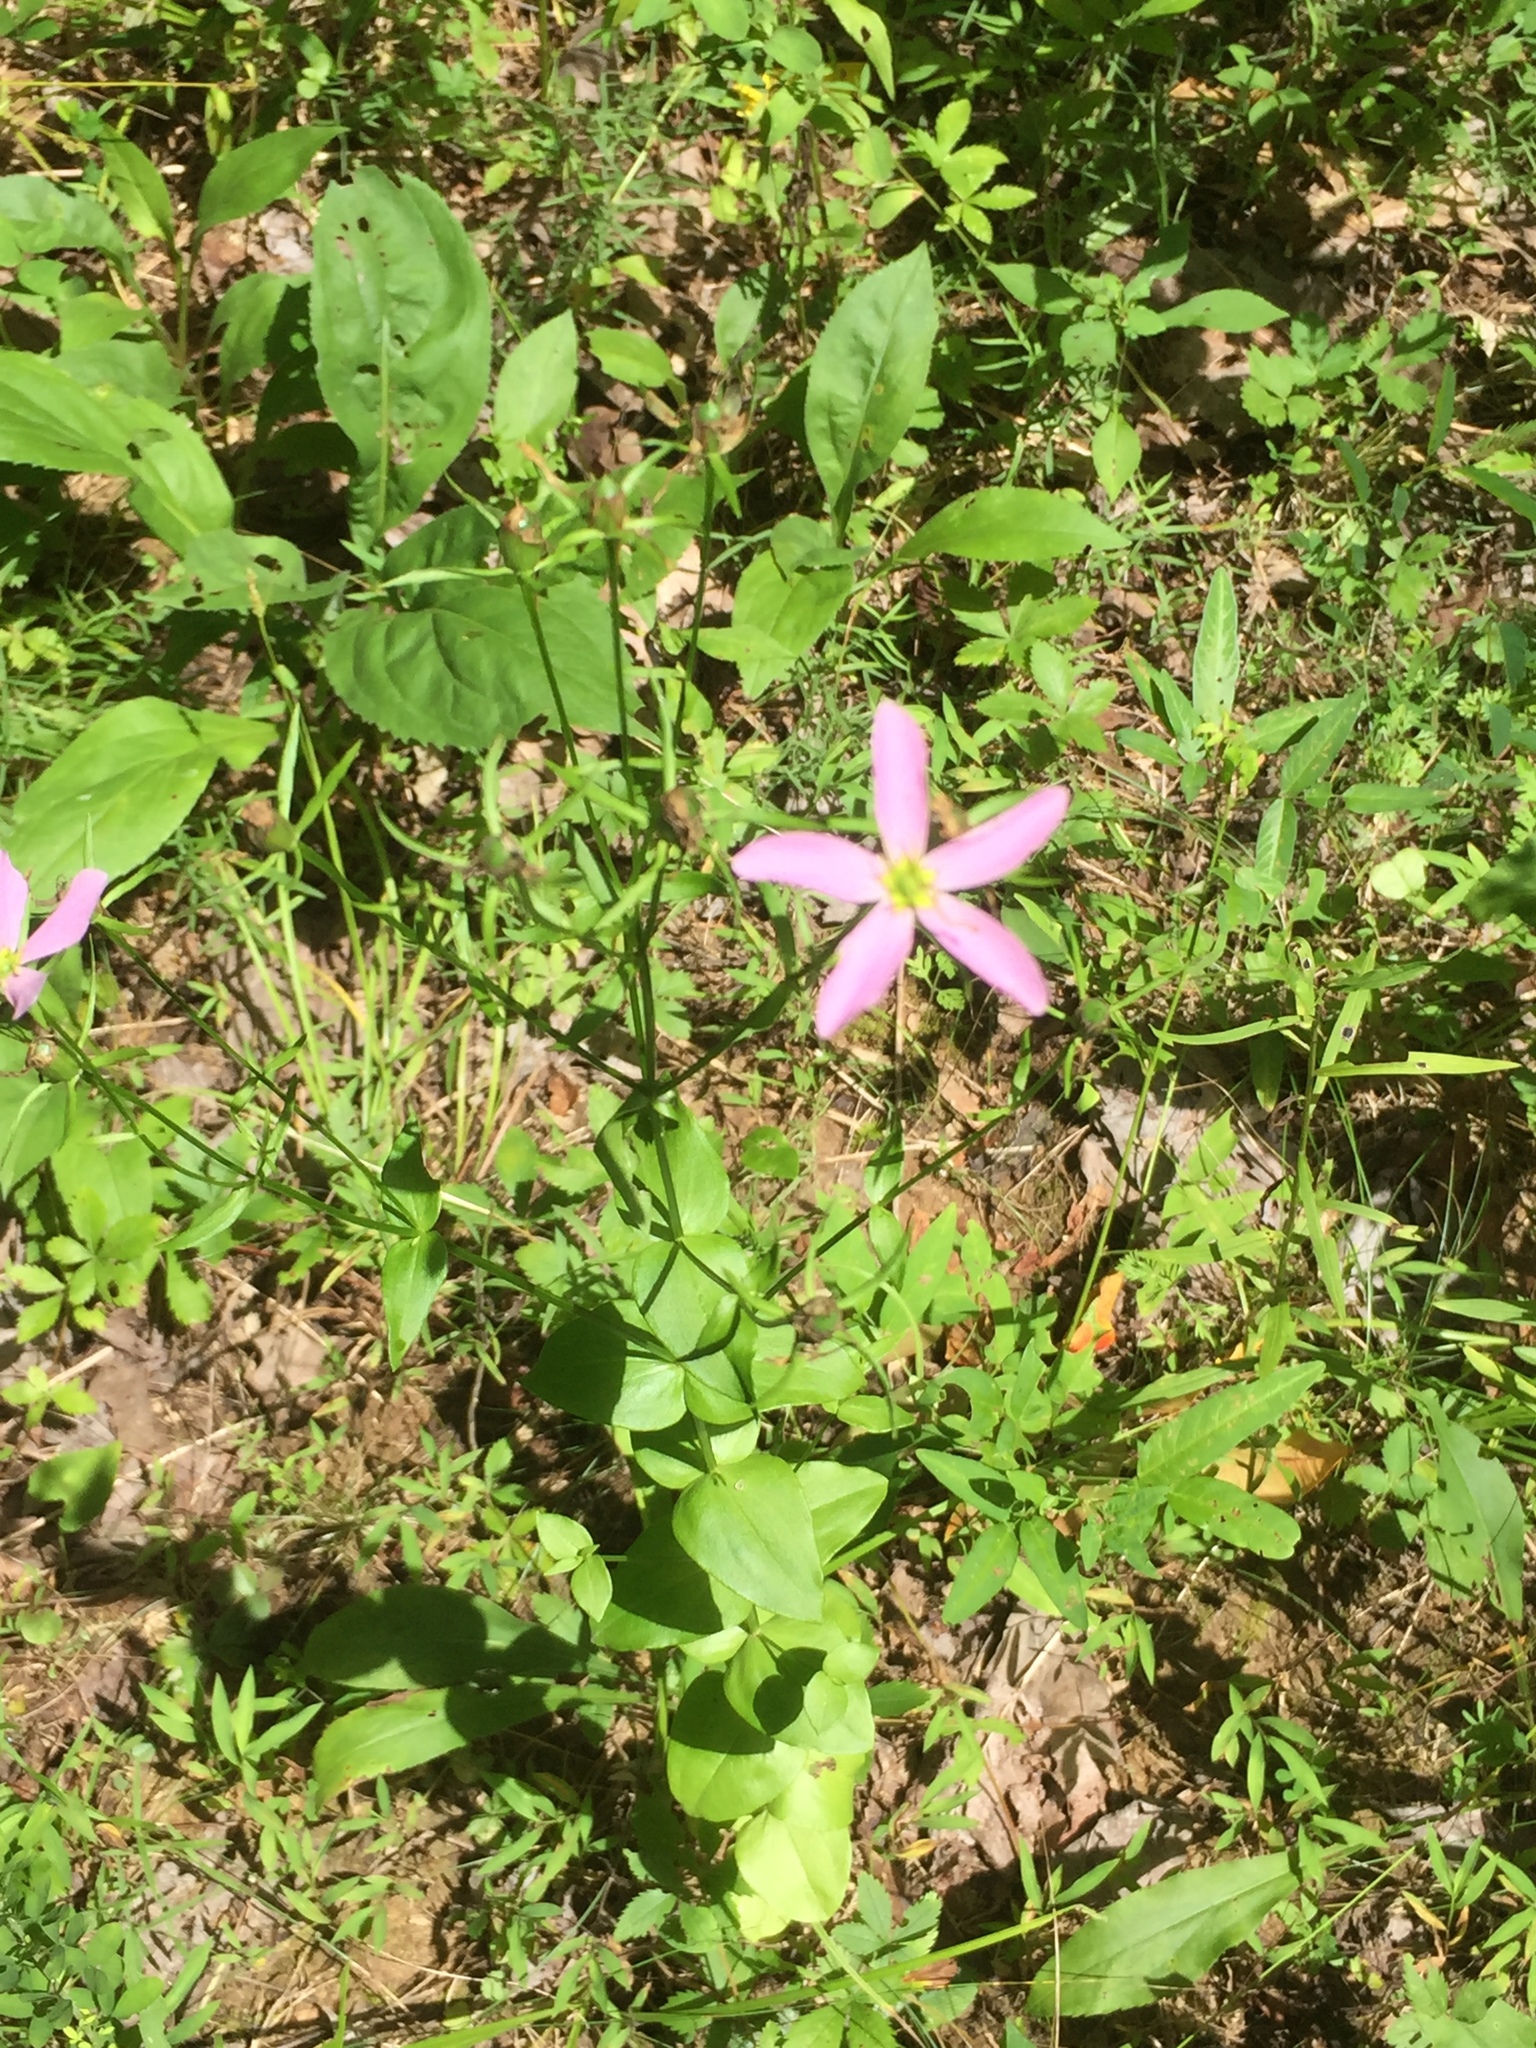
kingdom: Plantae
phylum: Tracheophyta
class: Magnoliopsida
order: Gentianales
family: Gentianaceae
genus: Sabatia
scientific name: Sabatia angularis
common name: Rose-pink
